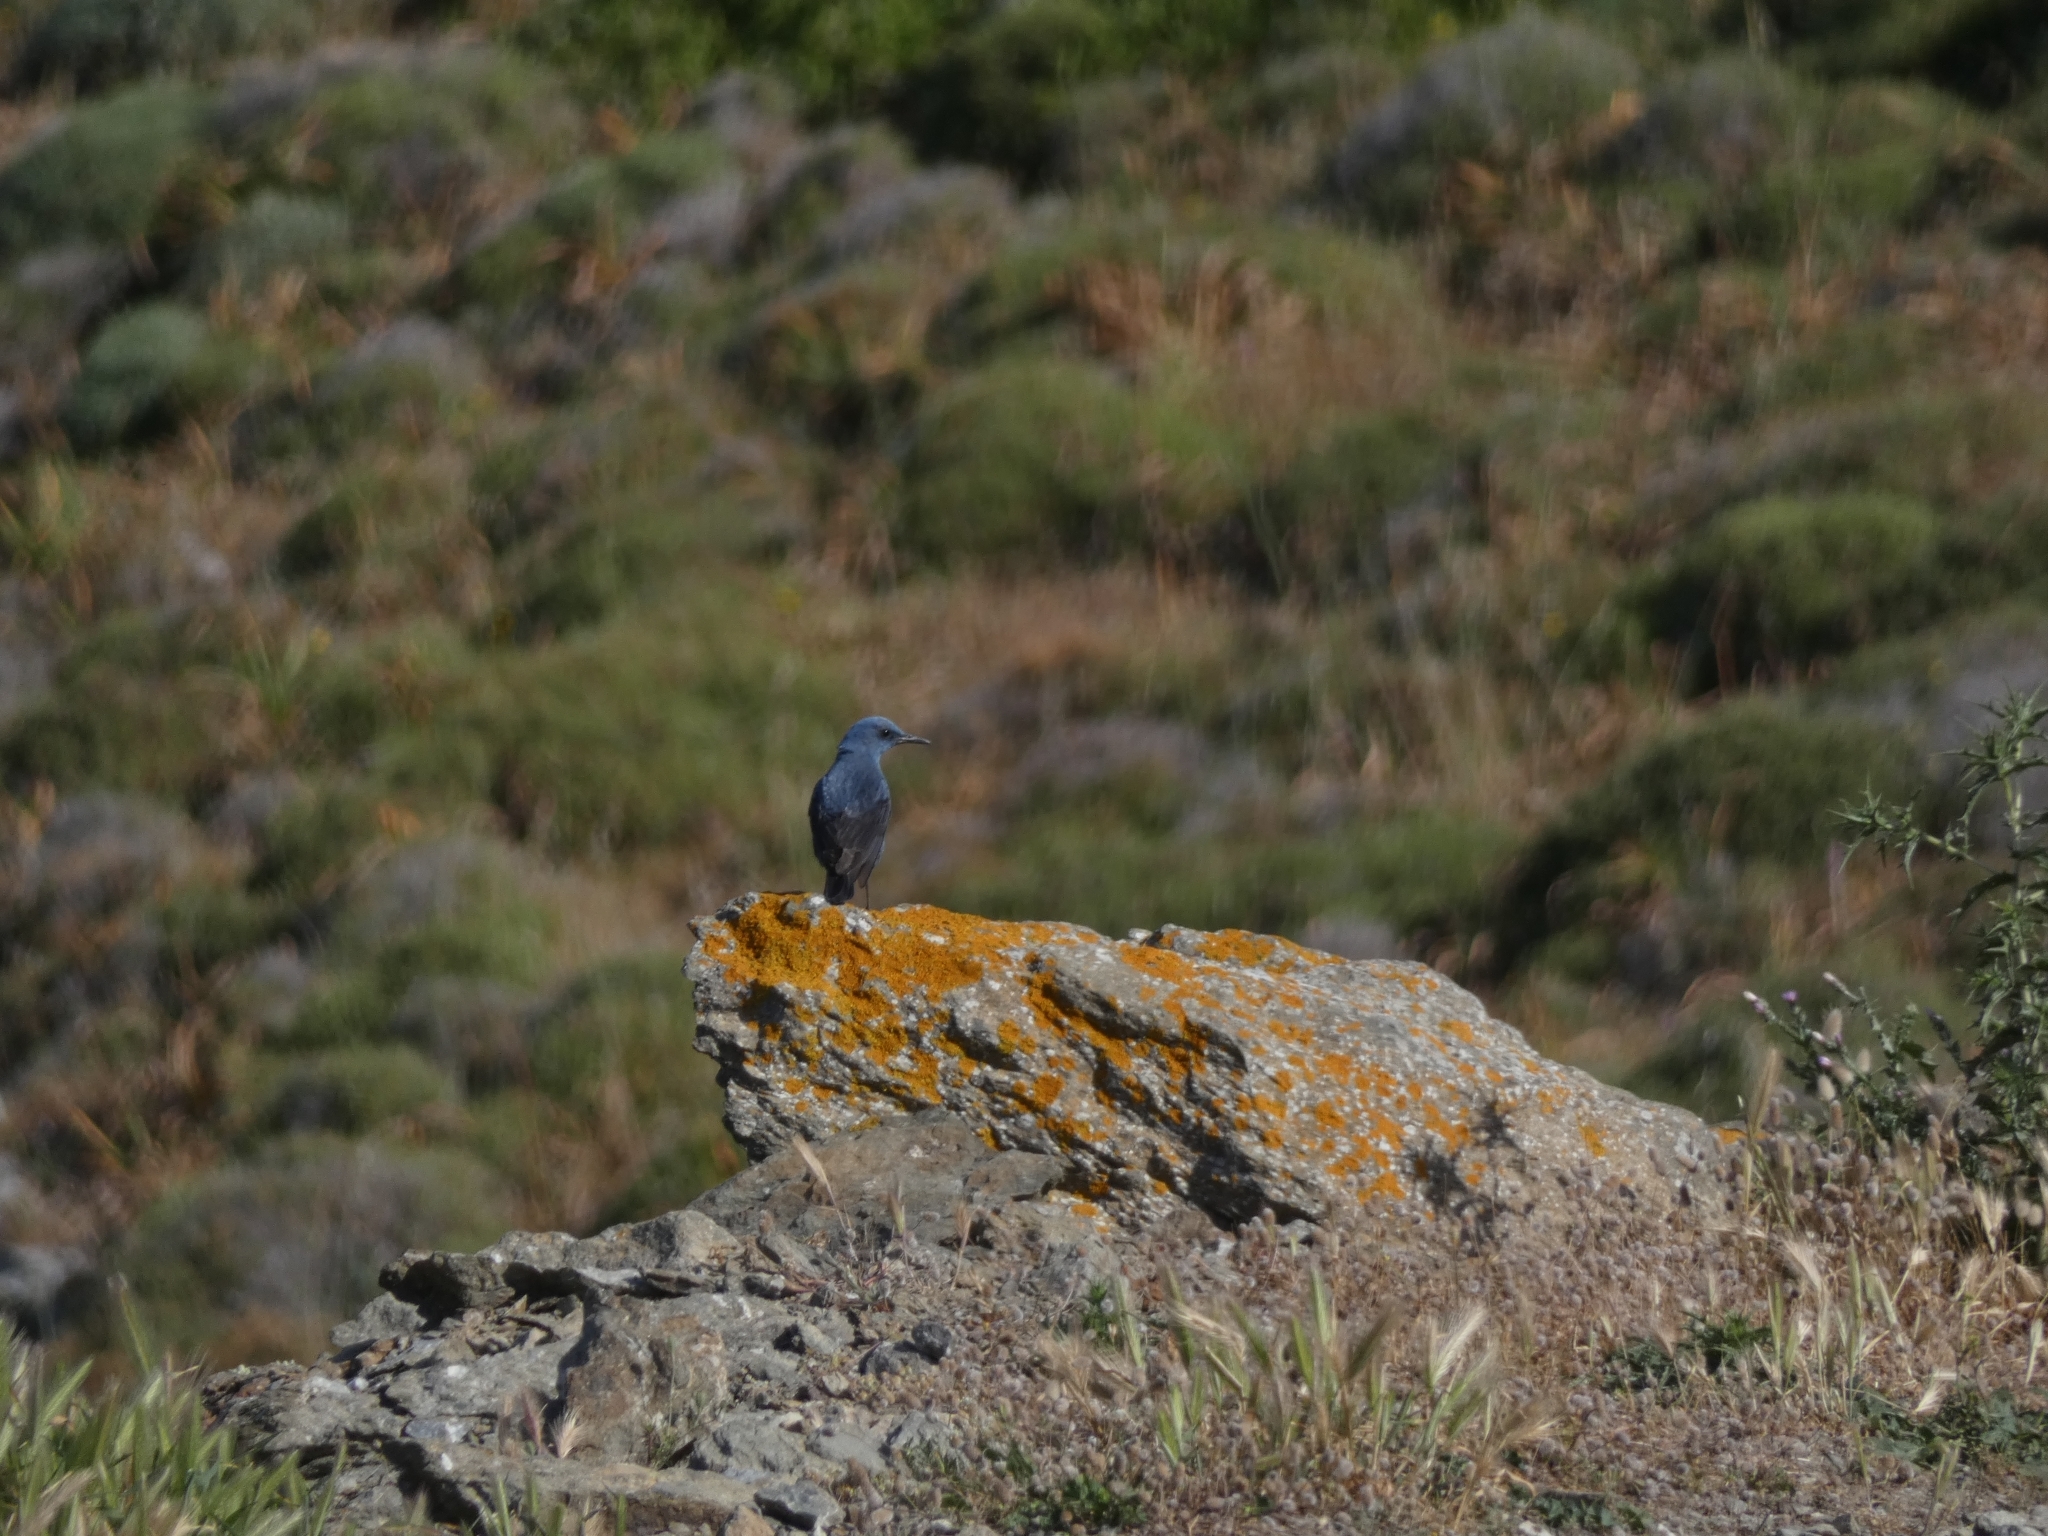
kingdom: Animalia
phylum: Chordata
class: Aves
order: Passeriformes
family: Muscicapidae
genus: Monticola
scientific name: Monticola solitarius
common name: Blue rock thrush
